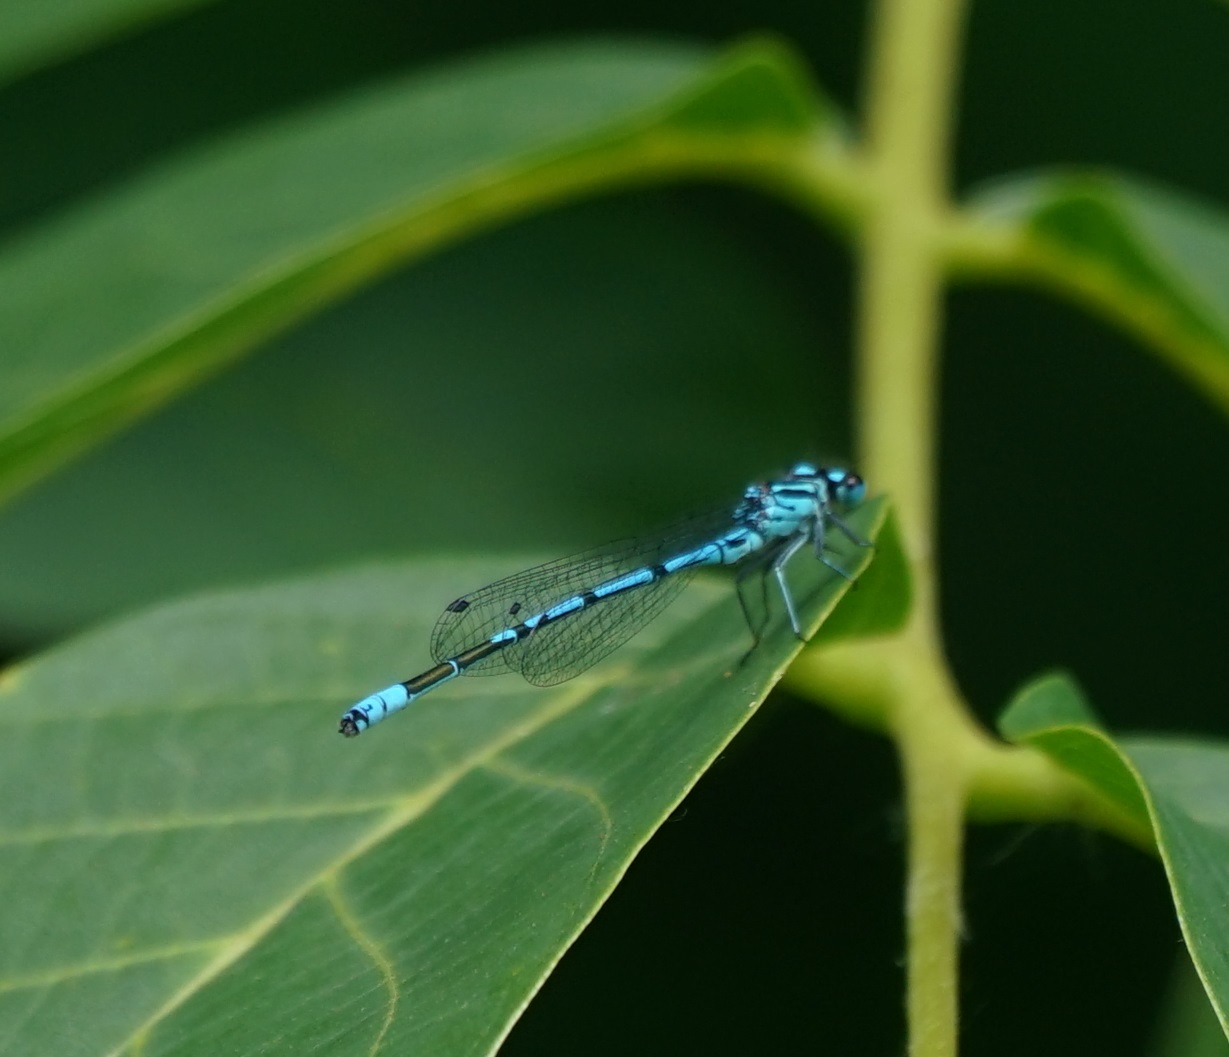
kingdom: Animalia
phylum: Arthropoda
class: Insecta
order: Odonata
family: Coenagrionidae
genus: Coenagrion
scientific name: Coenagrion puella
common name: Azure damselfly
